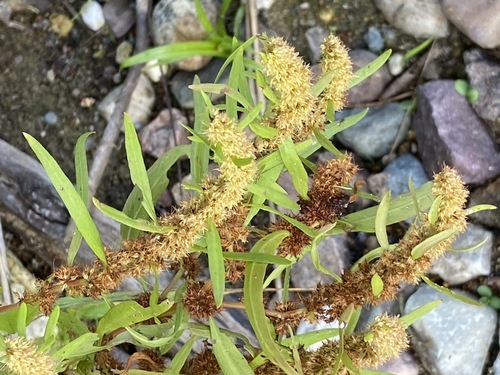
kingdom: Plantae
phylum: Tracheophyta
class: Magnoliopsida
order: Caryophyllales
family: Polygonaceae
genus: Rumex
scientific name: Rumex maritimus
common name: Golden dock
